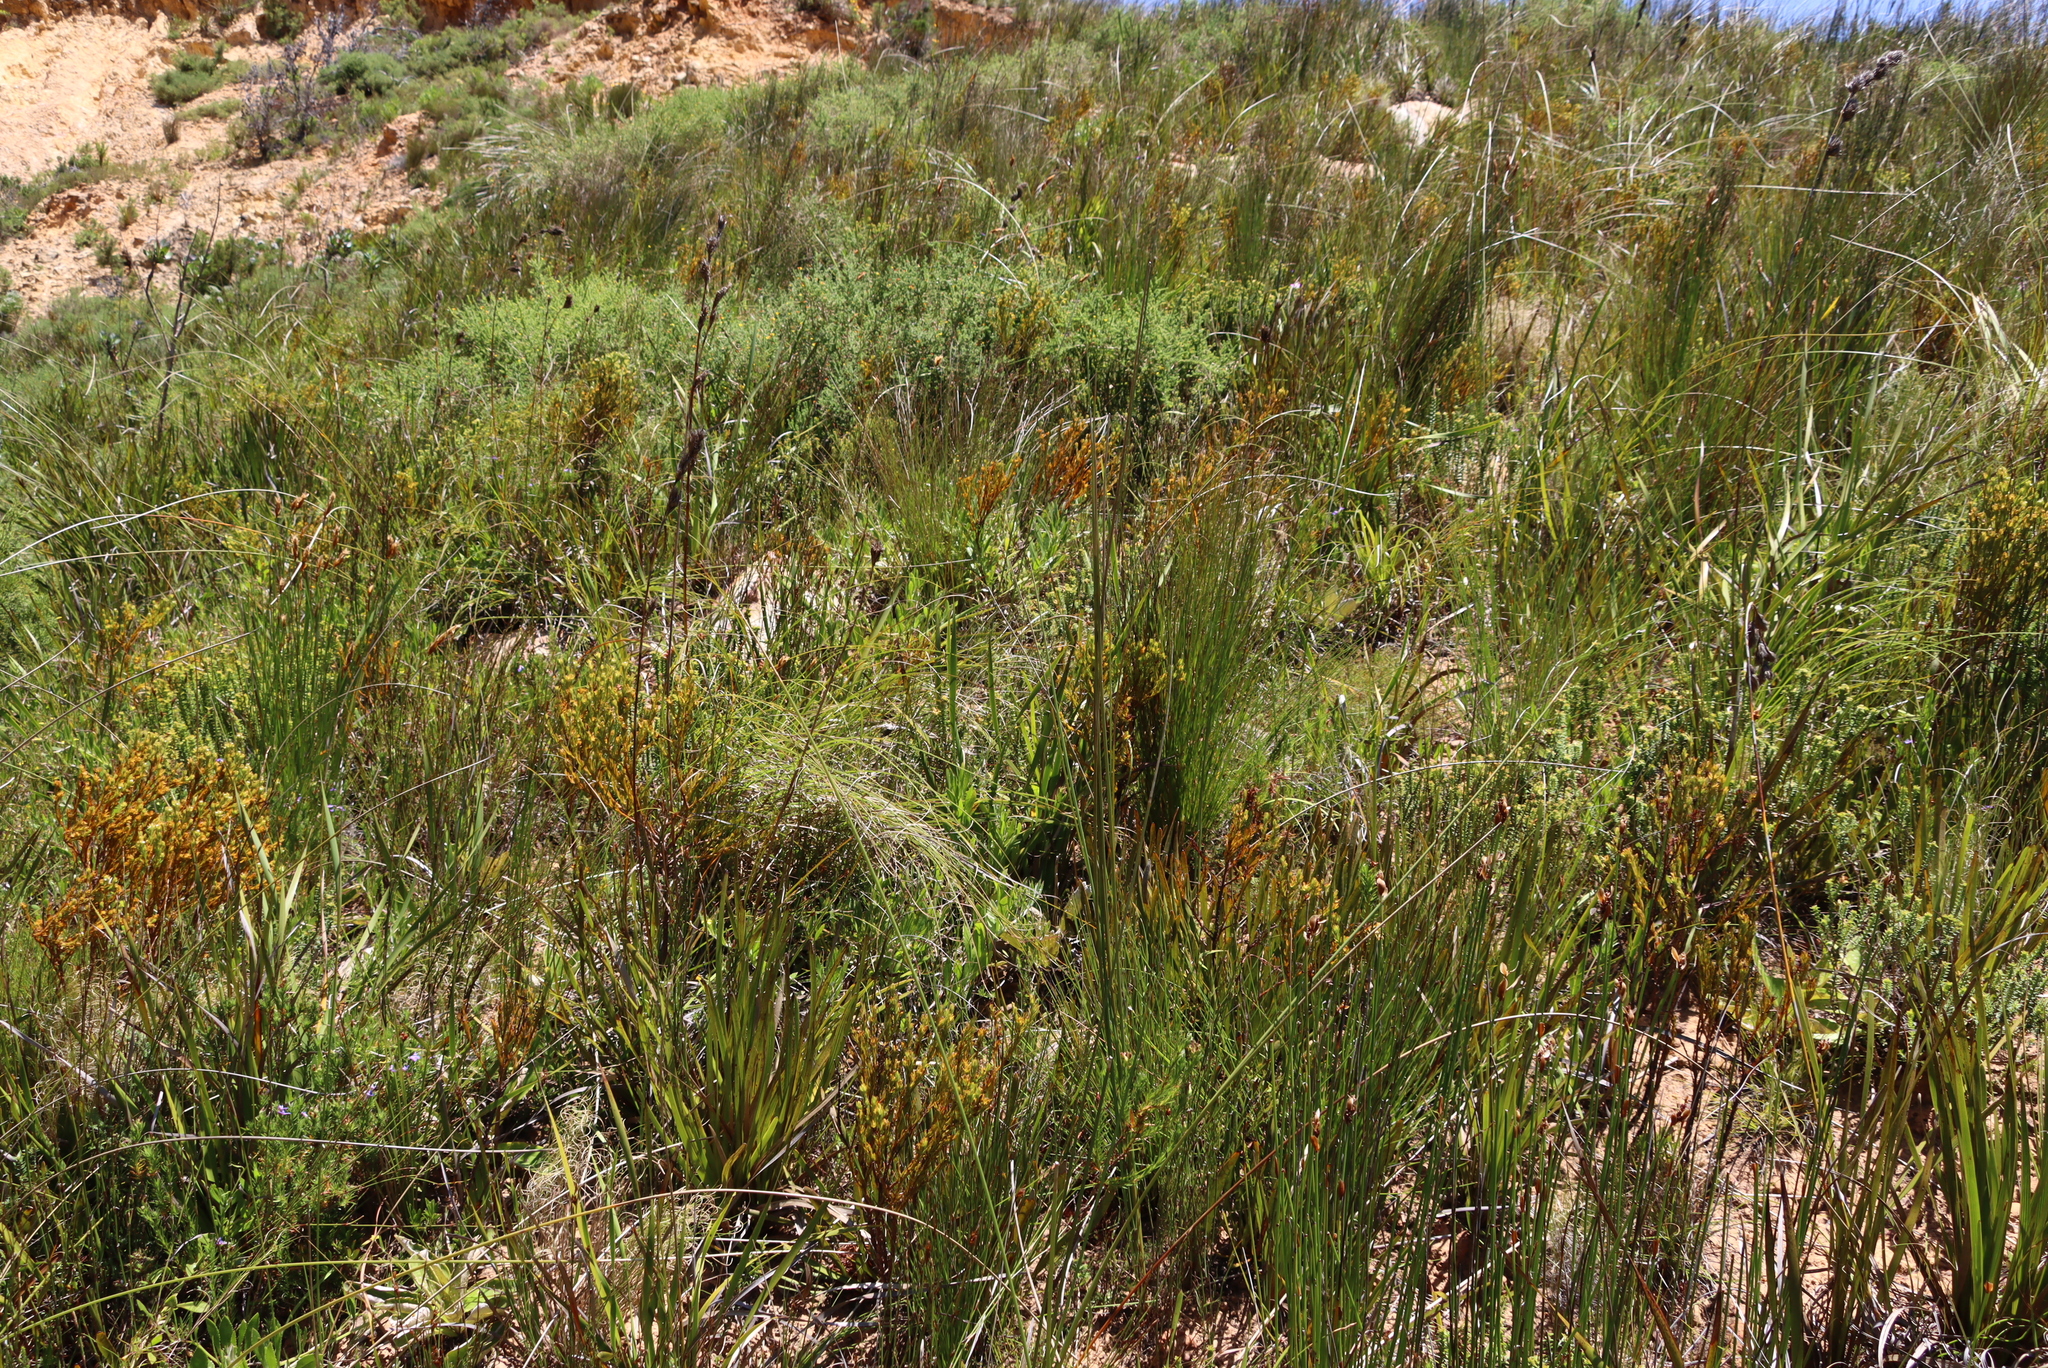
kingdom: Plantae
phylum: Tracheophyta
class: Magnoliopsida
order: Santalales
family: Thesiaceae
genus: Thesium
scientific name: Thesium carinatum
